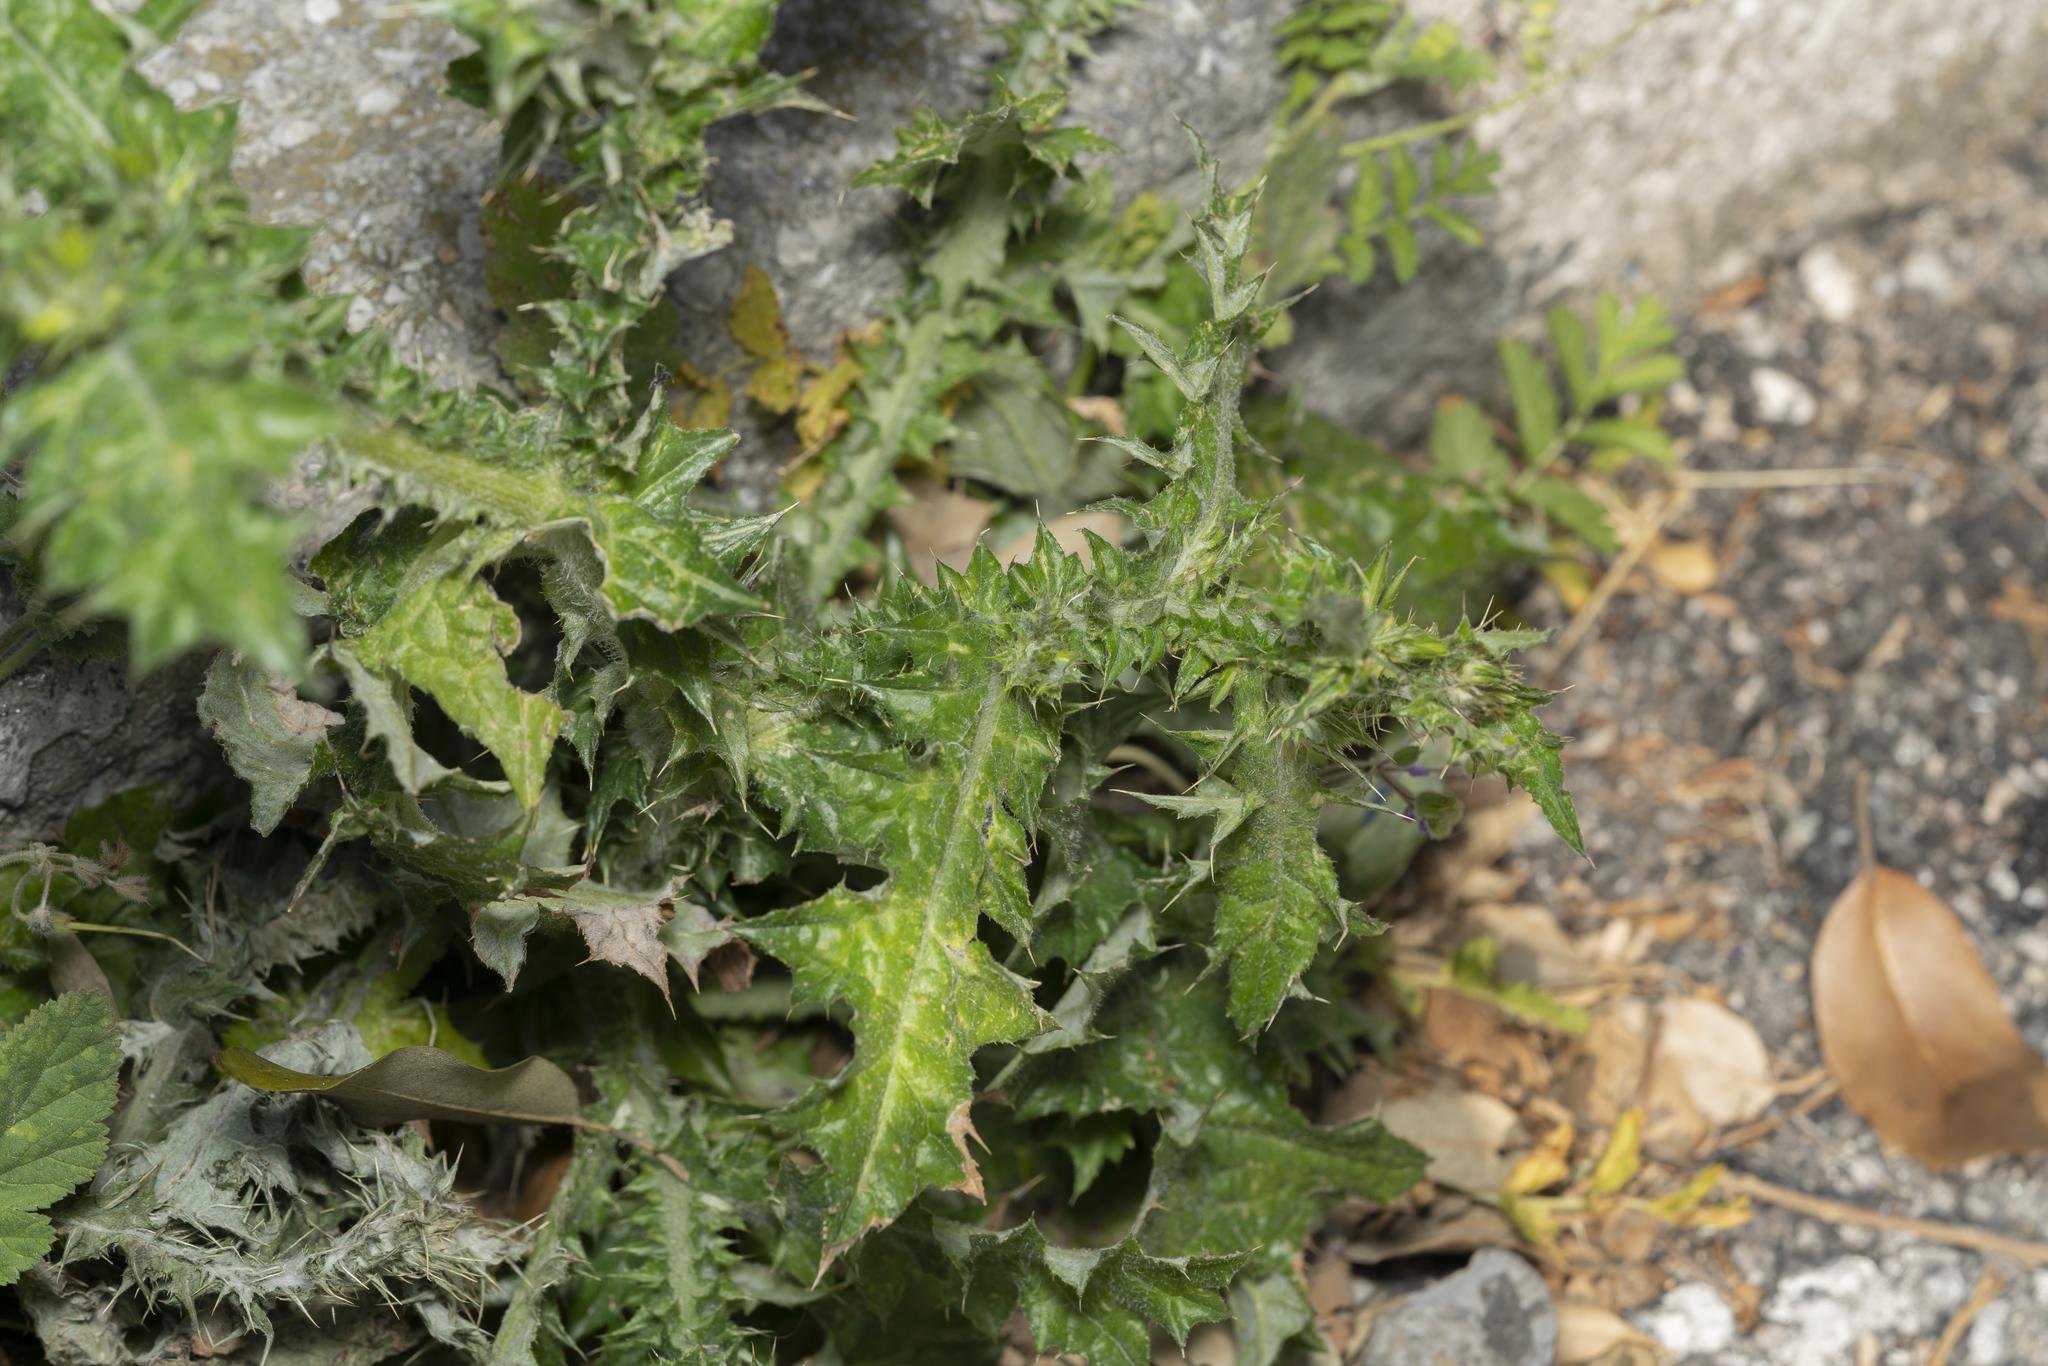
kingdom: Plantae
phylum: Tracheophyta
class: Magnoliopsida
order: Asterales
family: Asteraceae
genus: Carduus
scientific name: Carduus pycnocephalus
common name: Plymouth thistle
